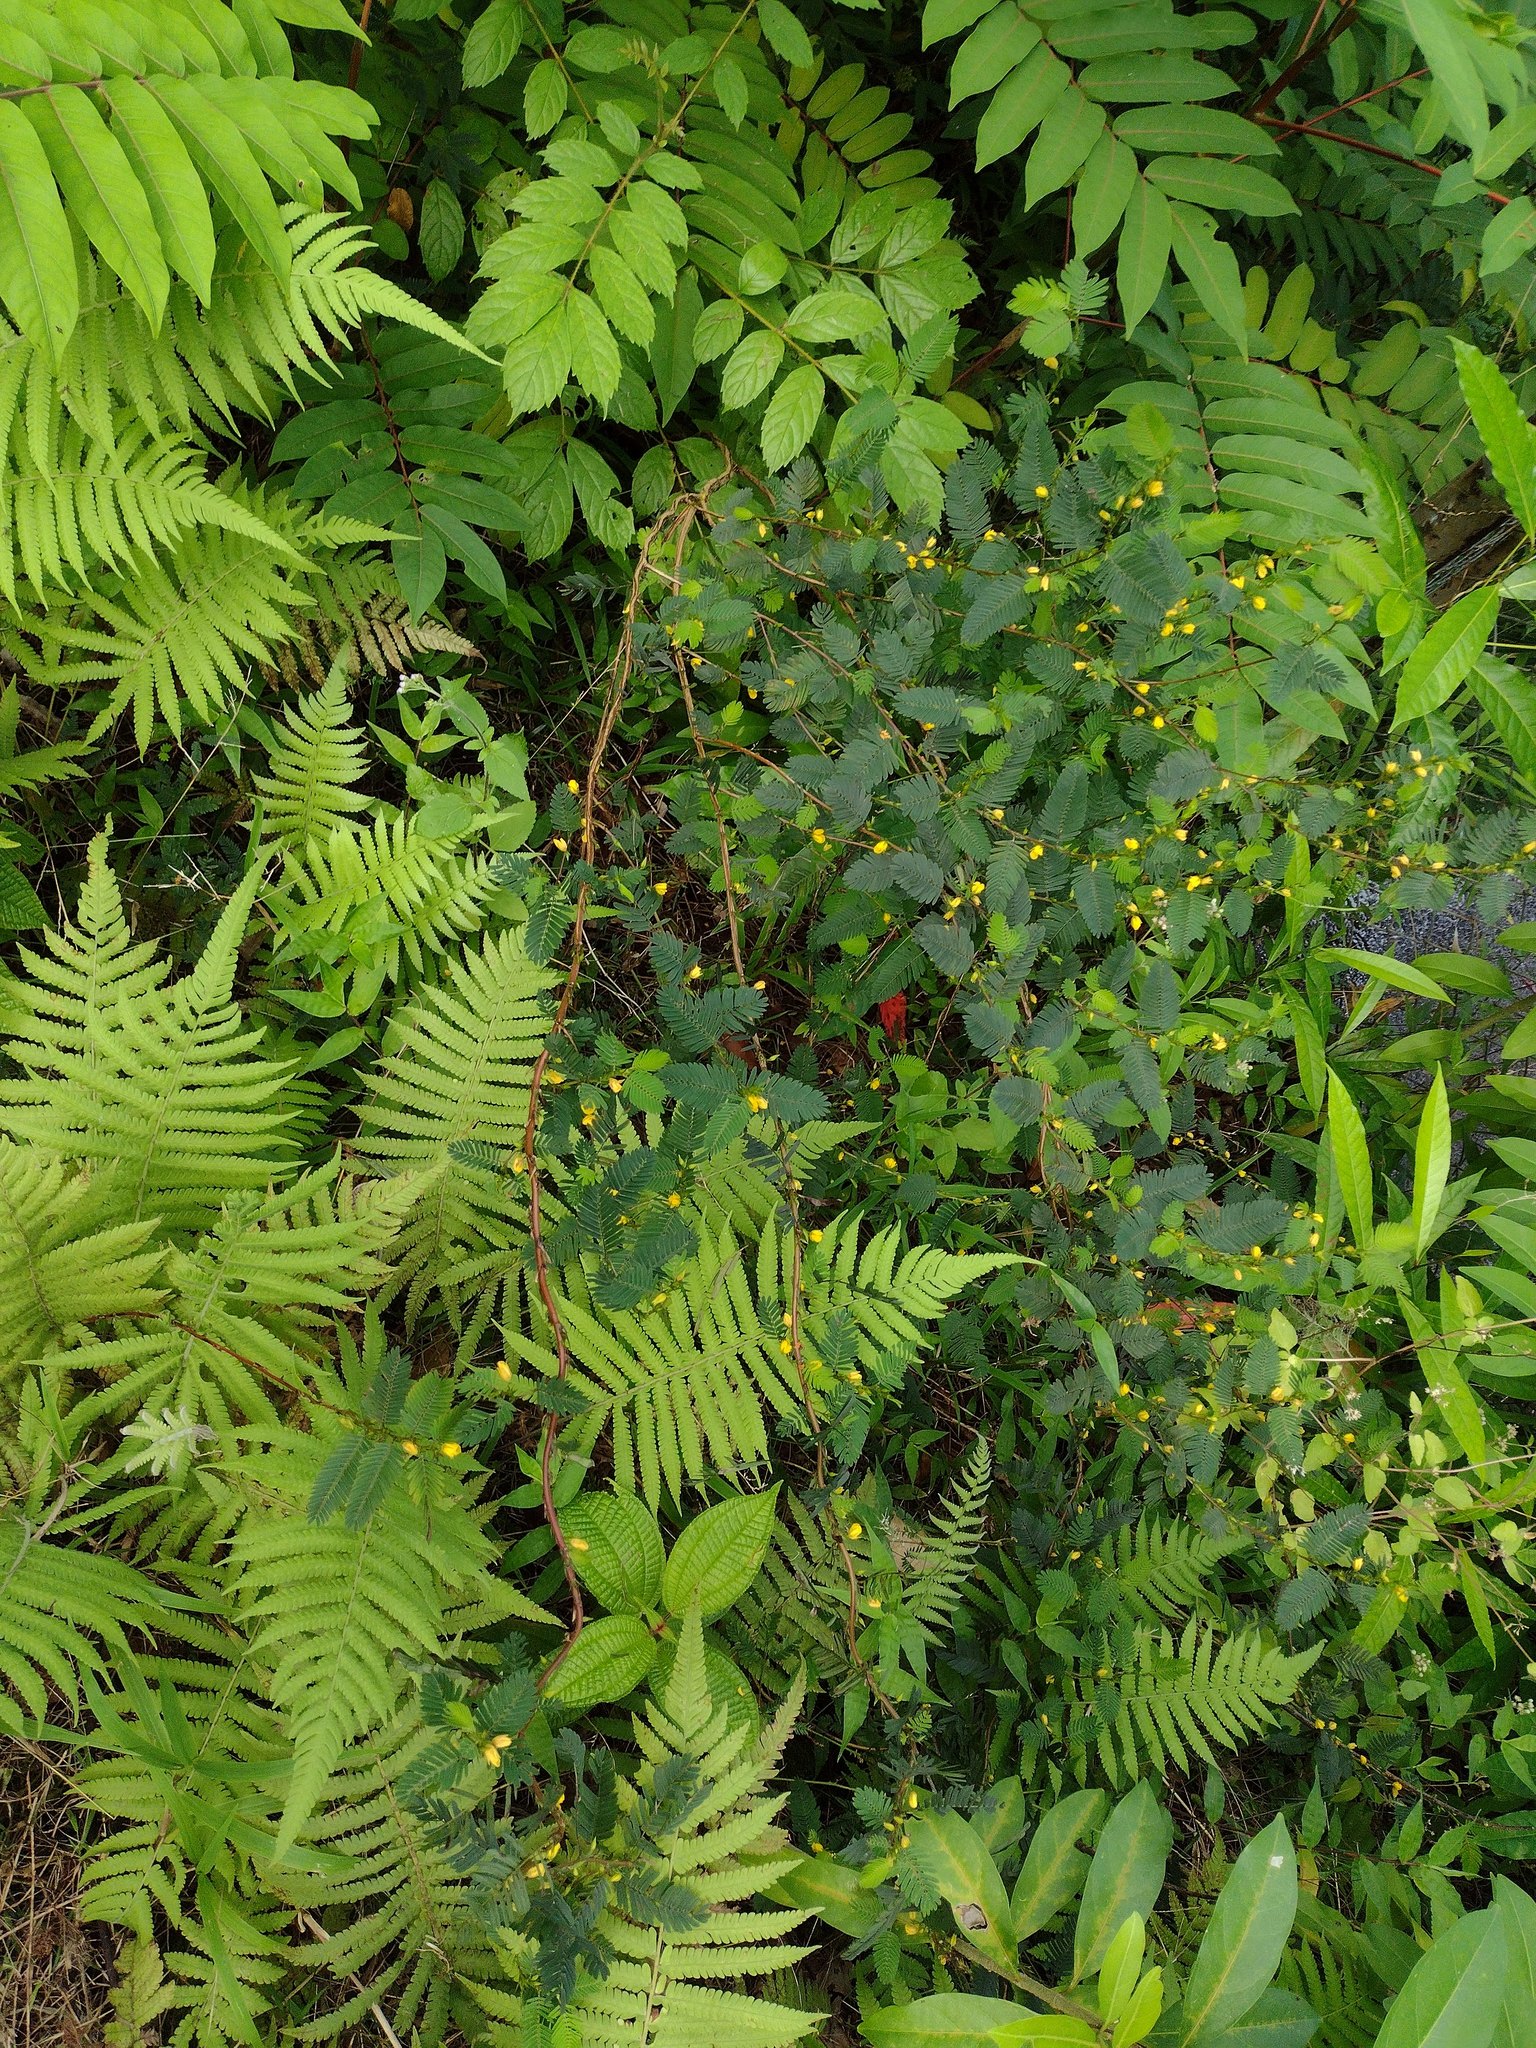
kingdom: Plantae
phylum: Tracheophyta
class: Magnoliopsida
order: Fabales
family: Fabaceae
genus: Chamaecrista
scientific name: Chamaecrista nictitans
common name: Sensitive cassia
